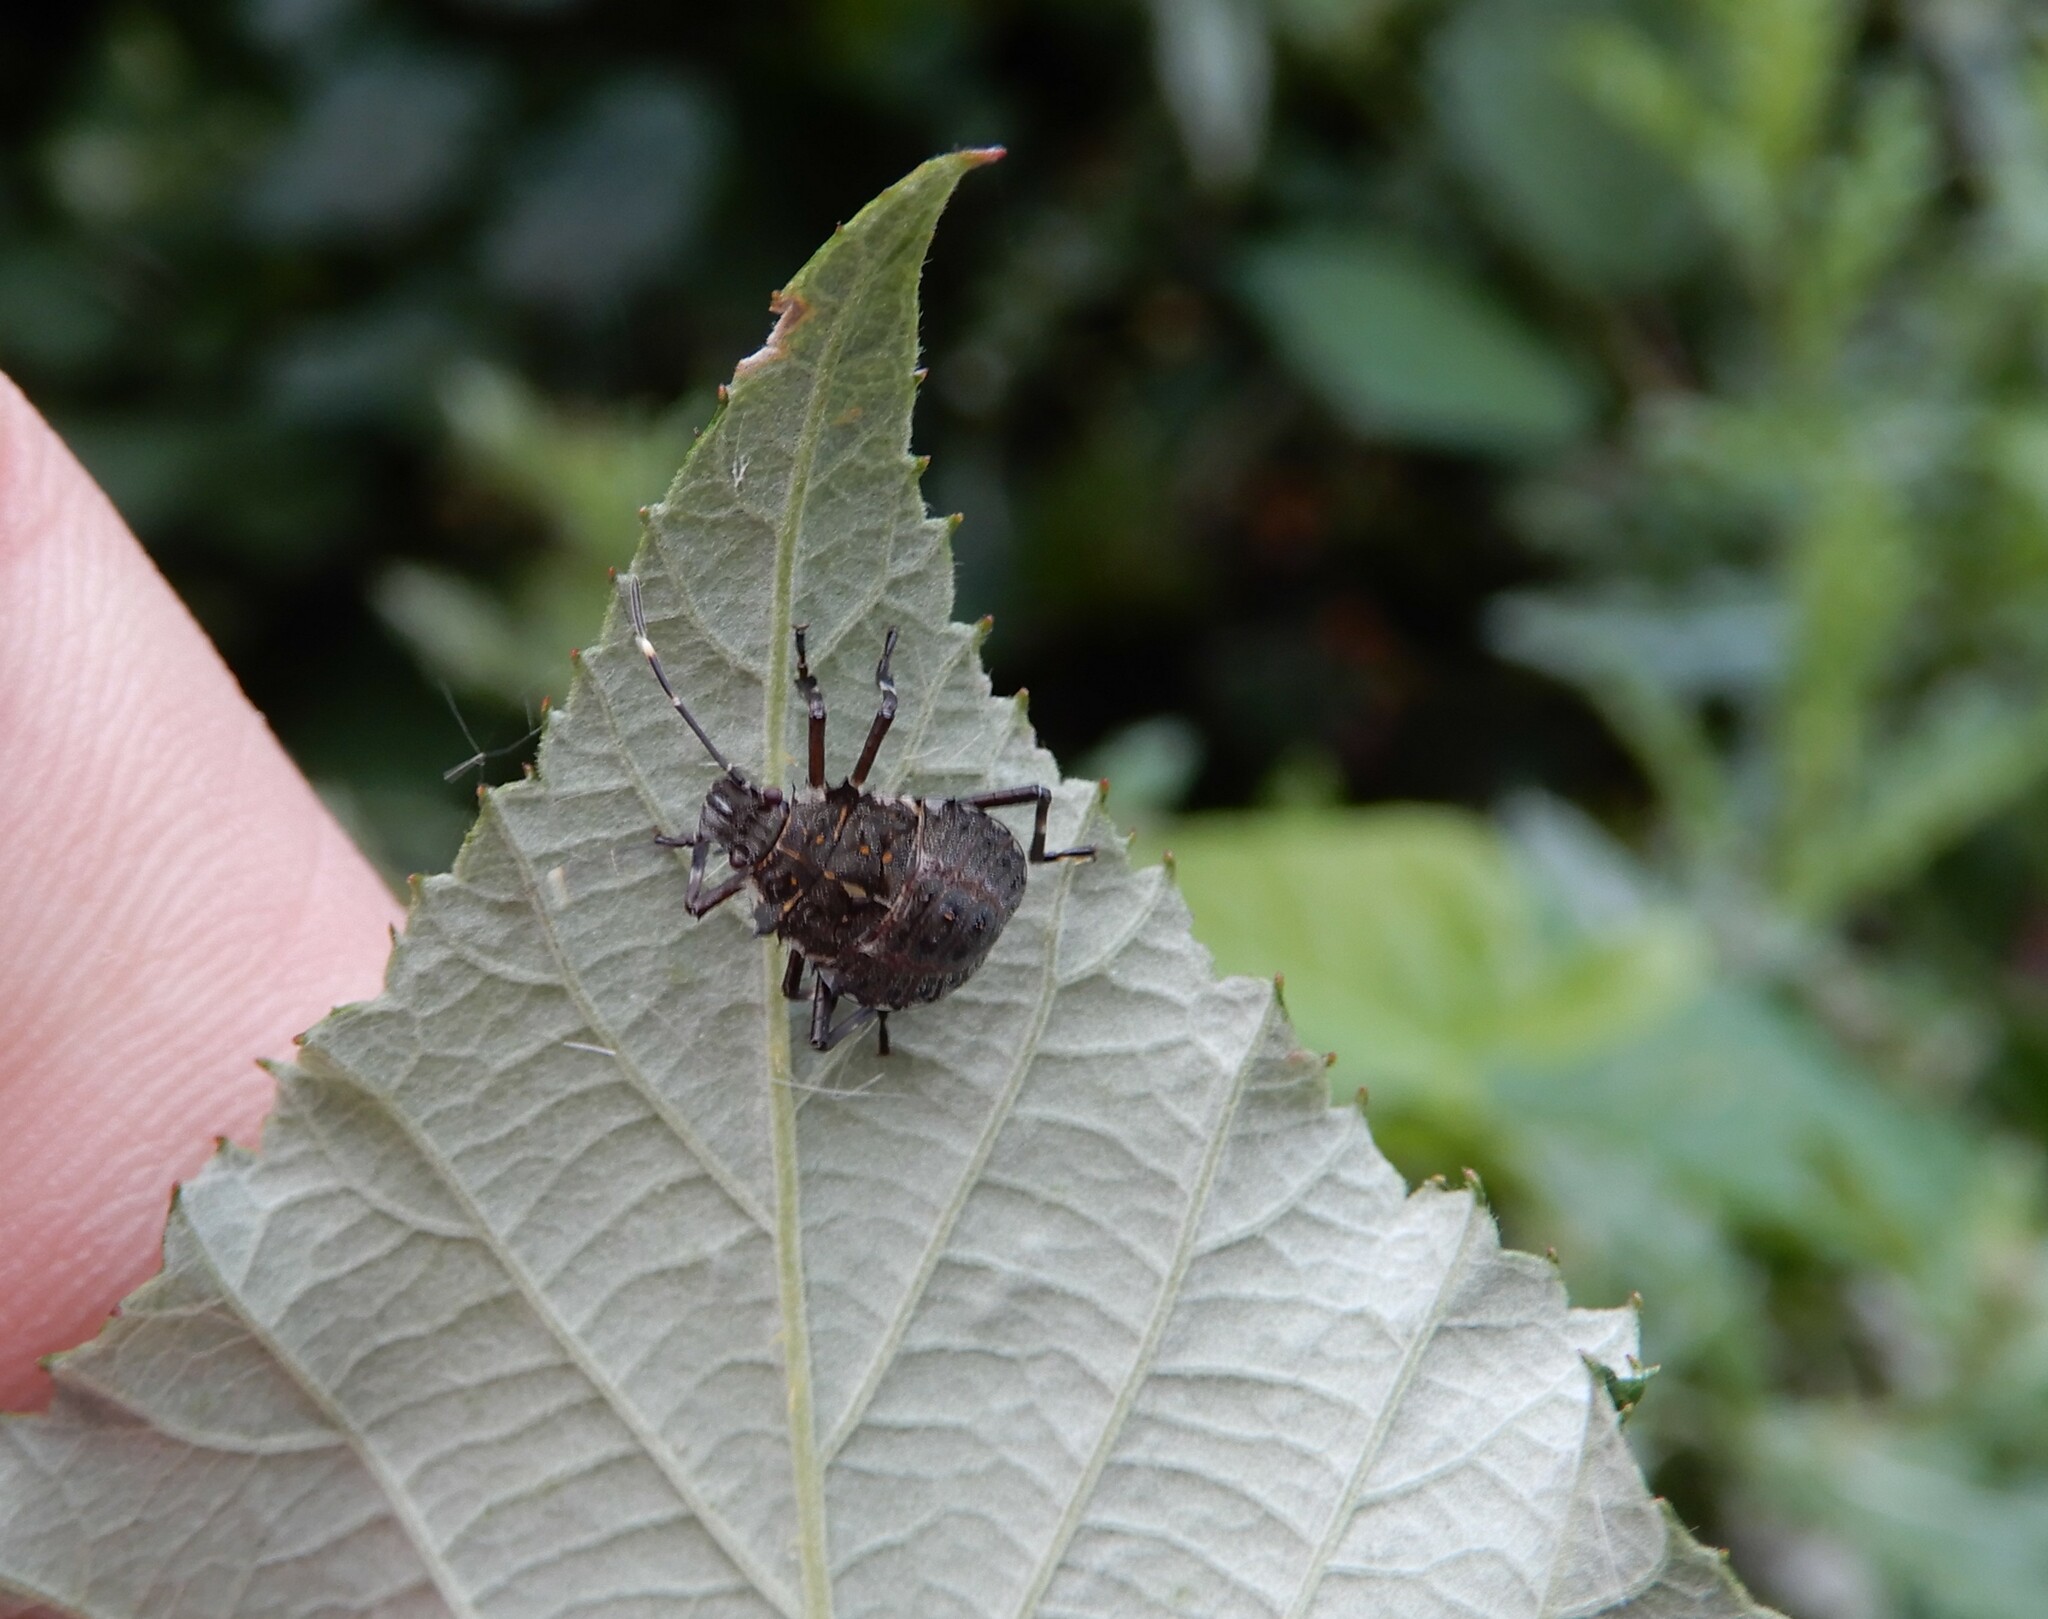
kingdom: Animalia
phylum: Arthropoda
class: Insecta
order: Hemiptera
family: Pentatomidae
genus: Halyomorpha
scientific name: Halyomorpha halys
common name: Brown marmorated stink bug
